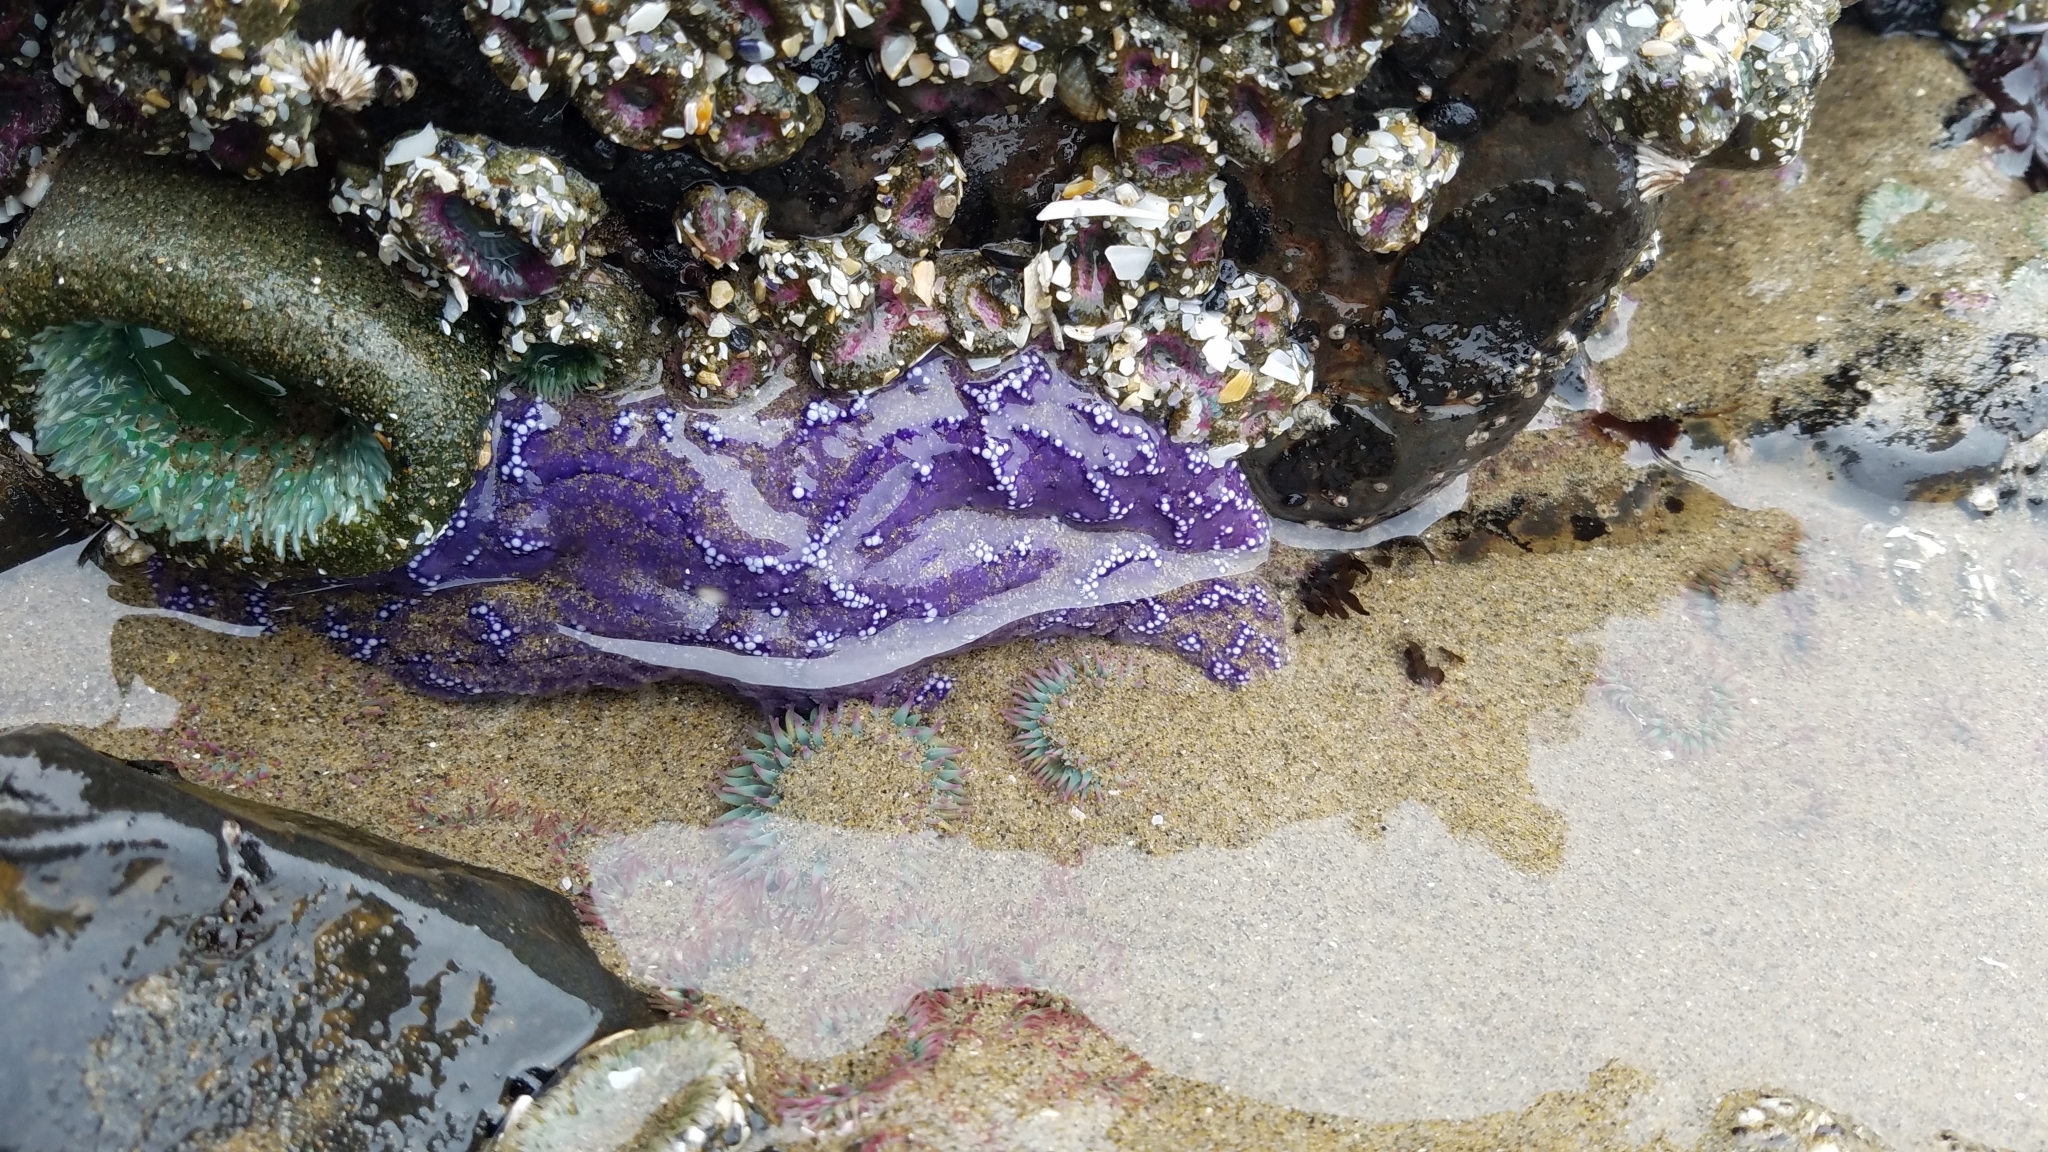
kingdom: Animalia
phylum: Echinodermata
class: Asteroidea
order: Forcipulatida
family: Asteriidae
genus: Pisaster
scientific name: Pisaster ochraceus
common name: Ochre stars
